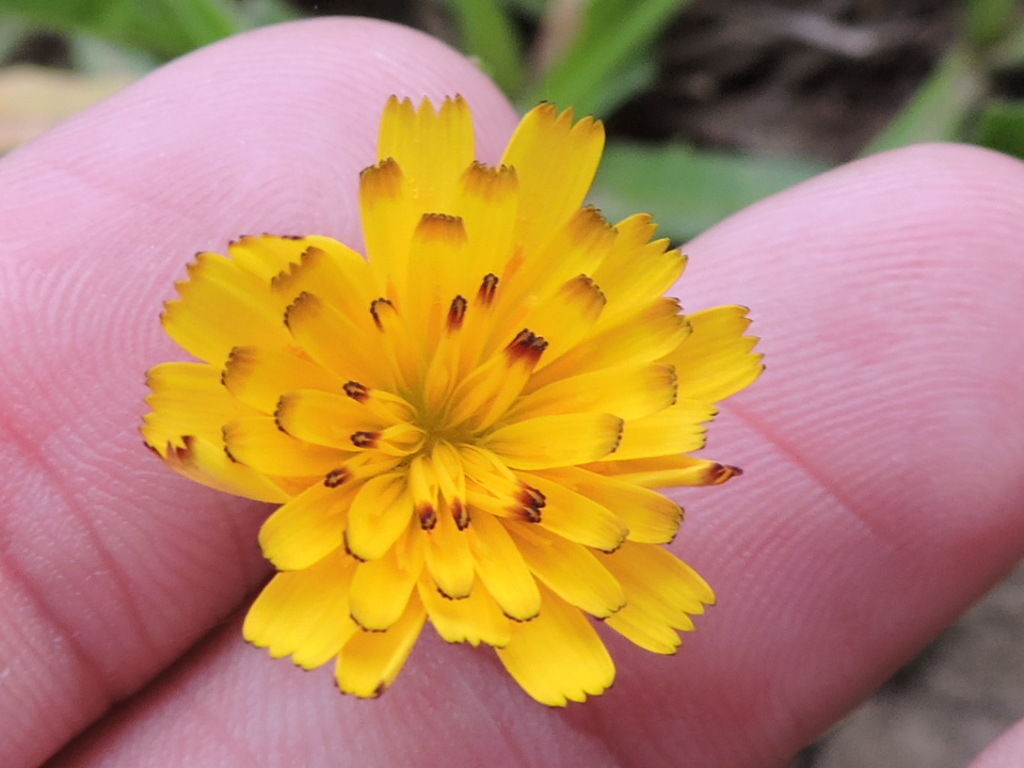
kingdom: Plantae
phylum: Tracheophyta
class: Magnoliopsida
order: Asterales
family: Asteraceae
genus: Hedypnois
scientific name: Hedypnois rhagadioloides
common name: Cretan weed
